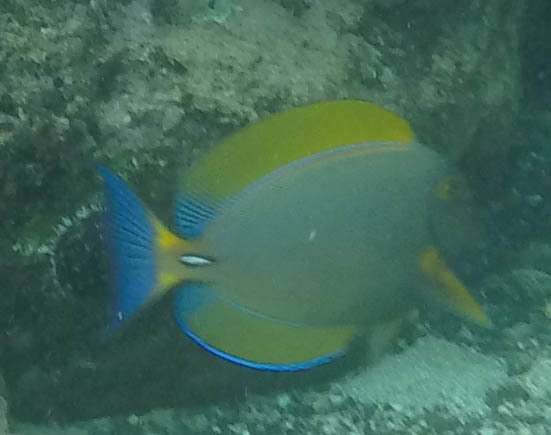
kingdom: Animalia
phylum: Chordata
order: Perciformes
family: Acanthuridae
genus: Acanthurus
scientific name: Acanthurus dussumieri
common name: Dussumier's surgeonfish
